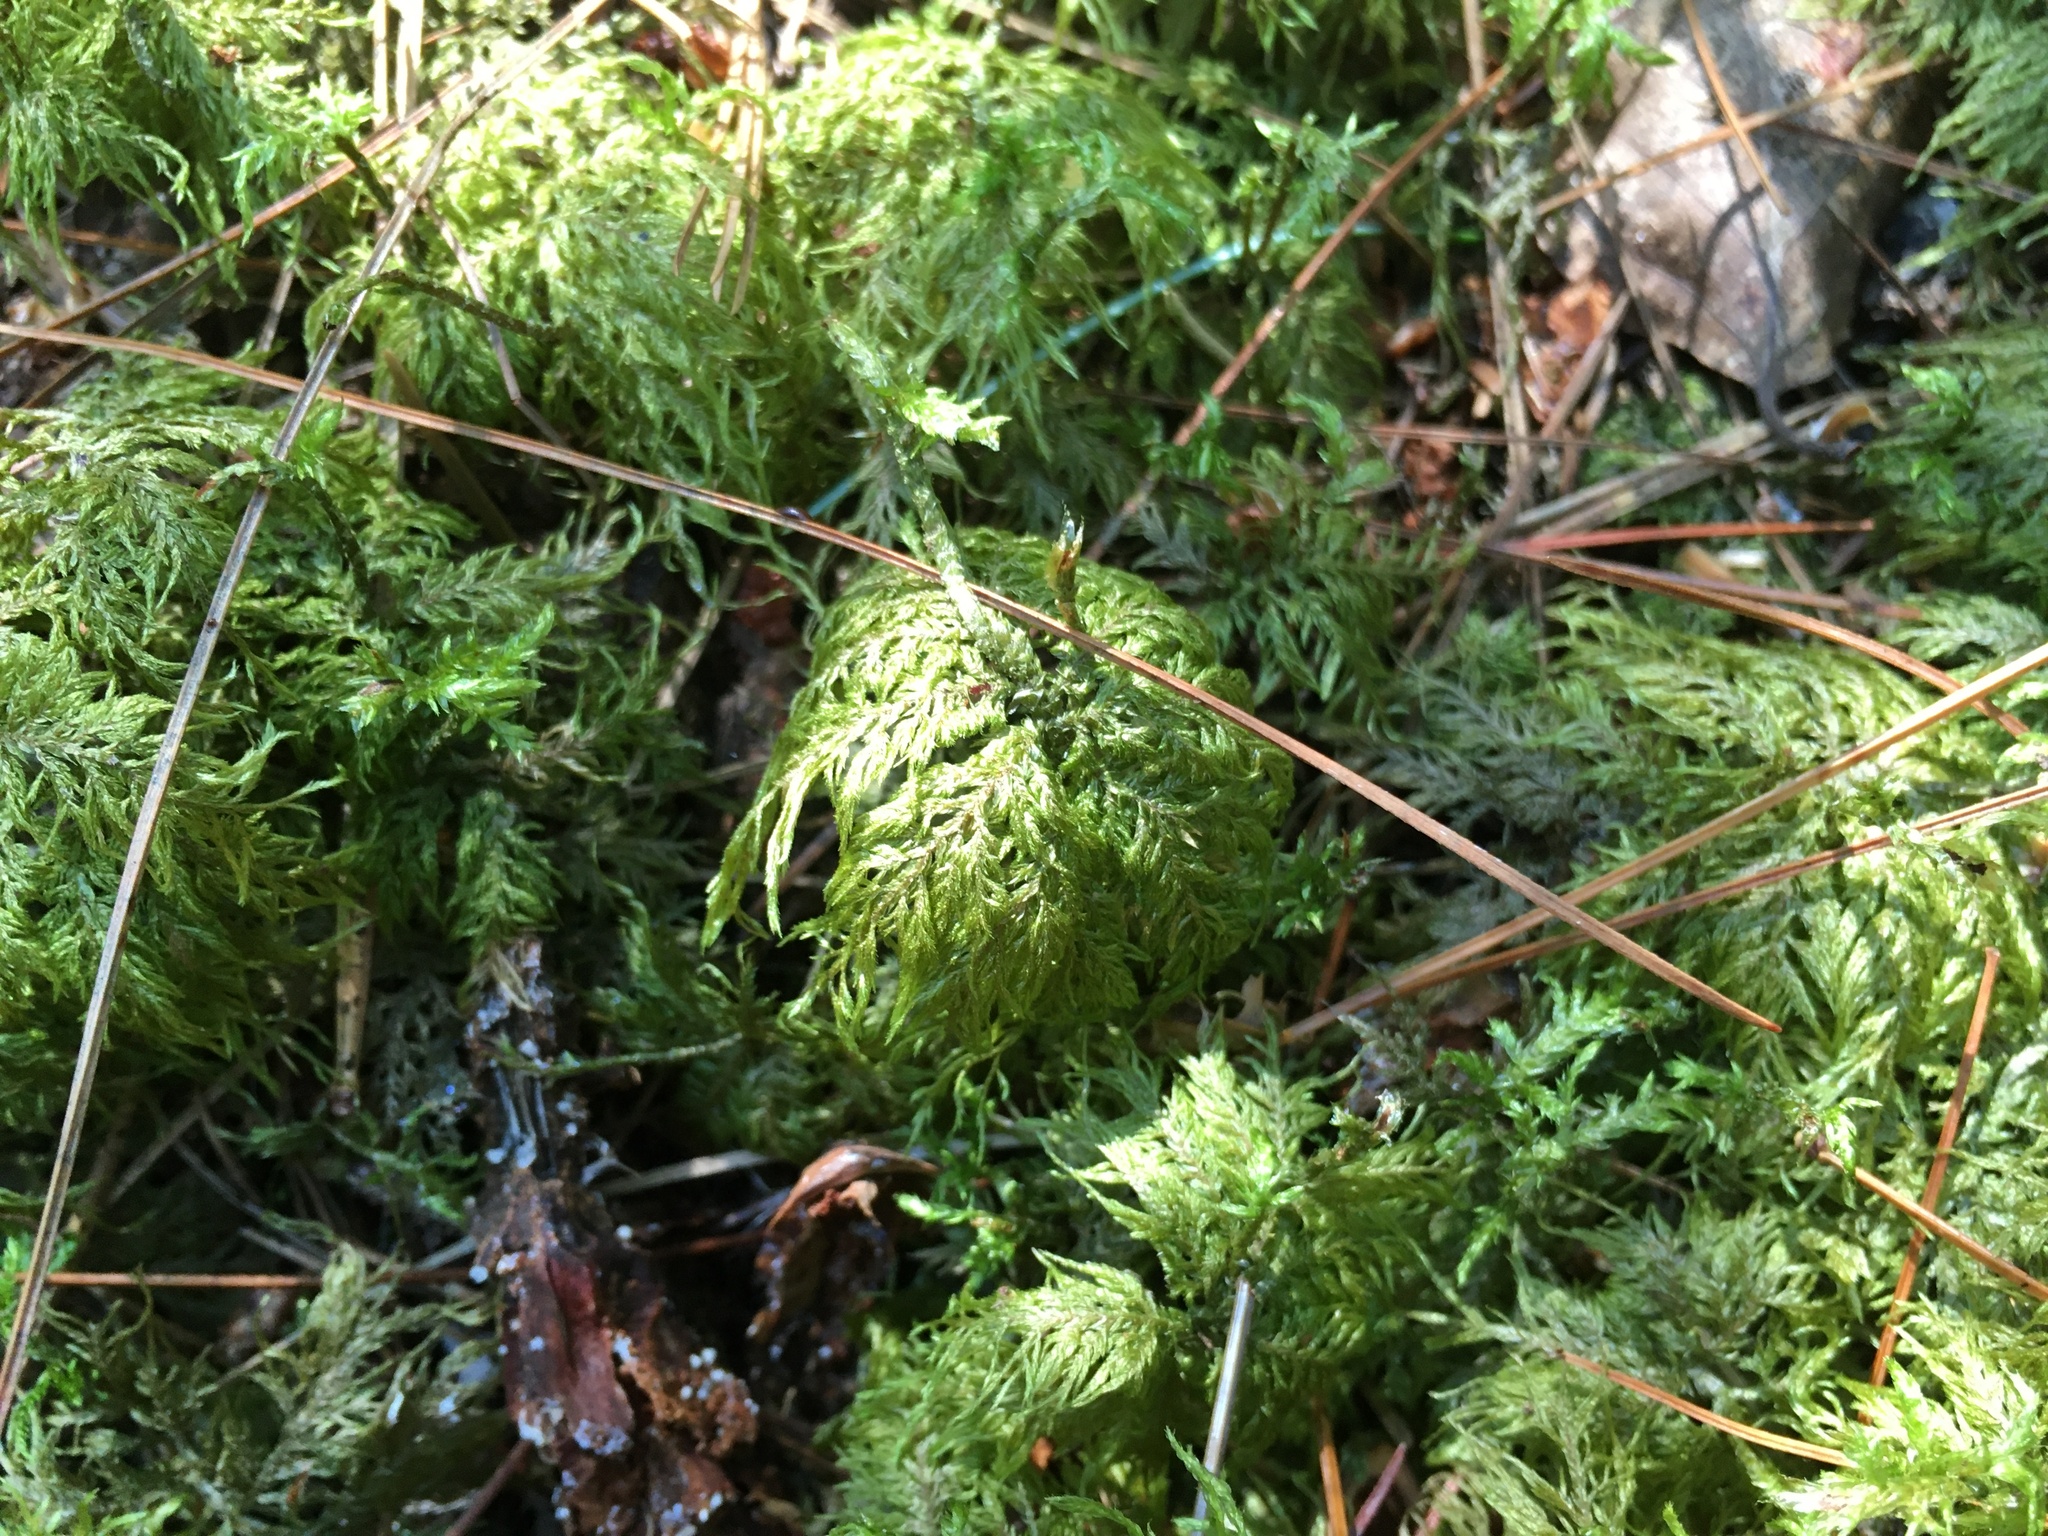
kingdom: Plantae
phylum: Bryophyta
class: Bryopsida
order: Hypnales
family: Hylocomiaceae
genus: Hylocomium
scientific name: Hylocomium splendens
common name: Stairstep moss
